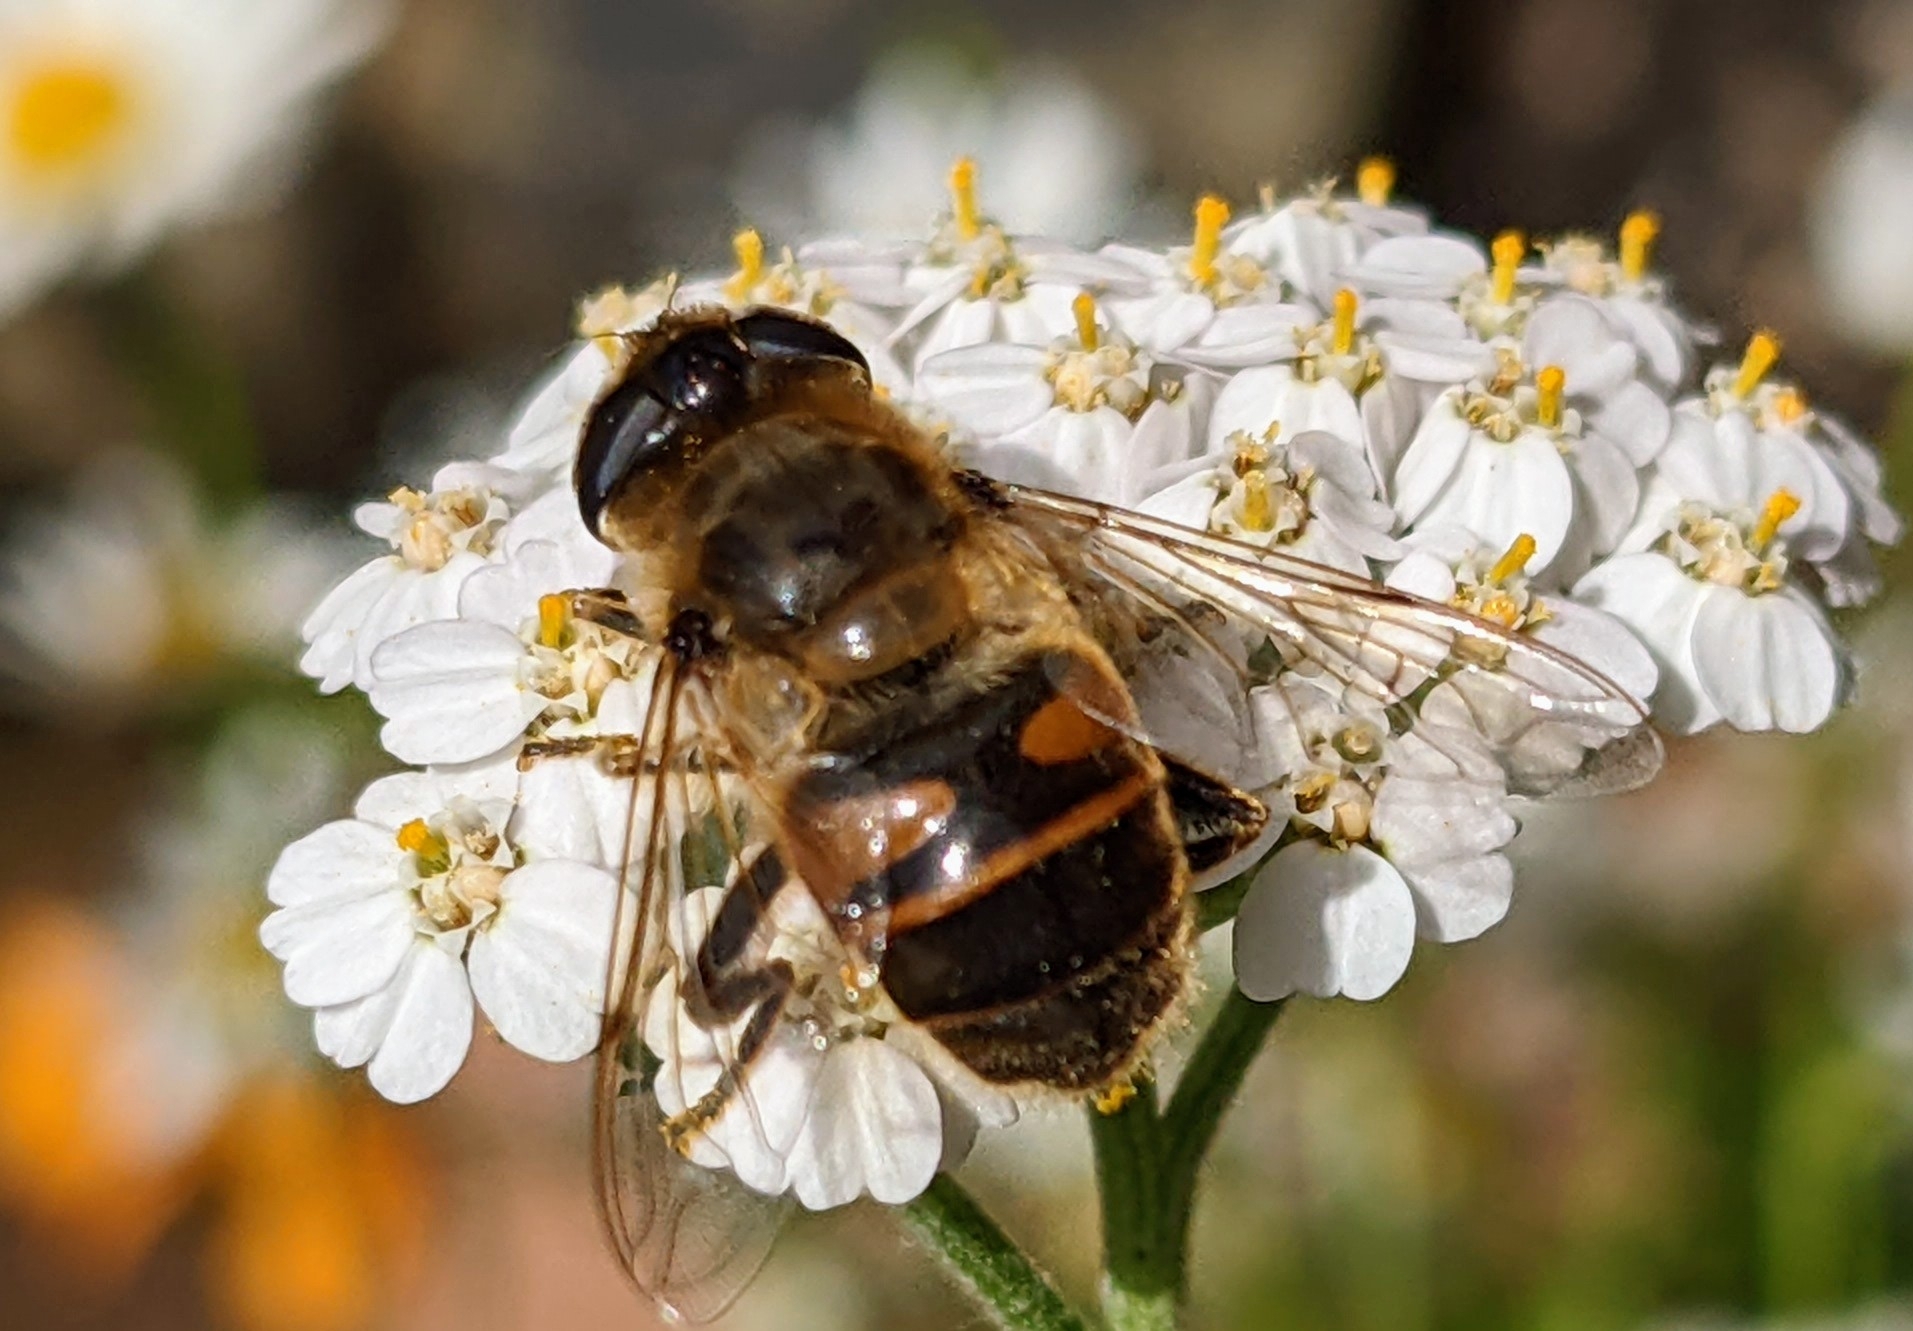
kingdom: Animalia
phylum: Arthropoda
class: Insecta
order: Diptera
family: Syrphidae
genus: Eristalis
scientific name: Eristalis tenax
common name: Drone fly
